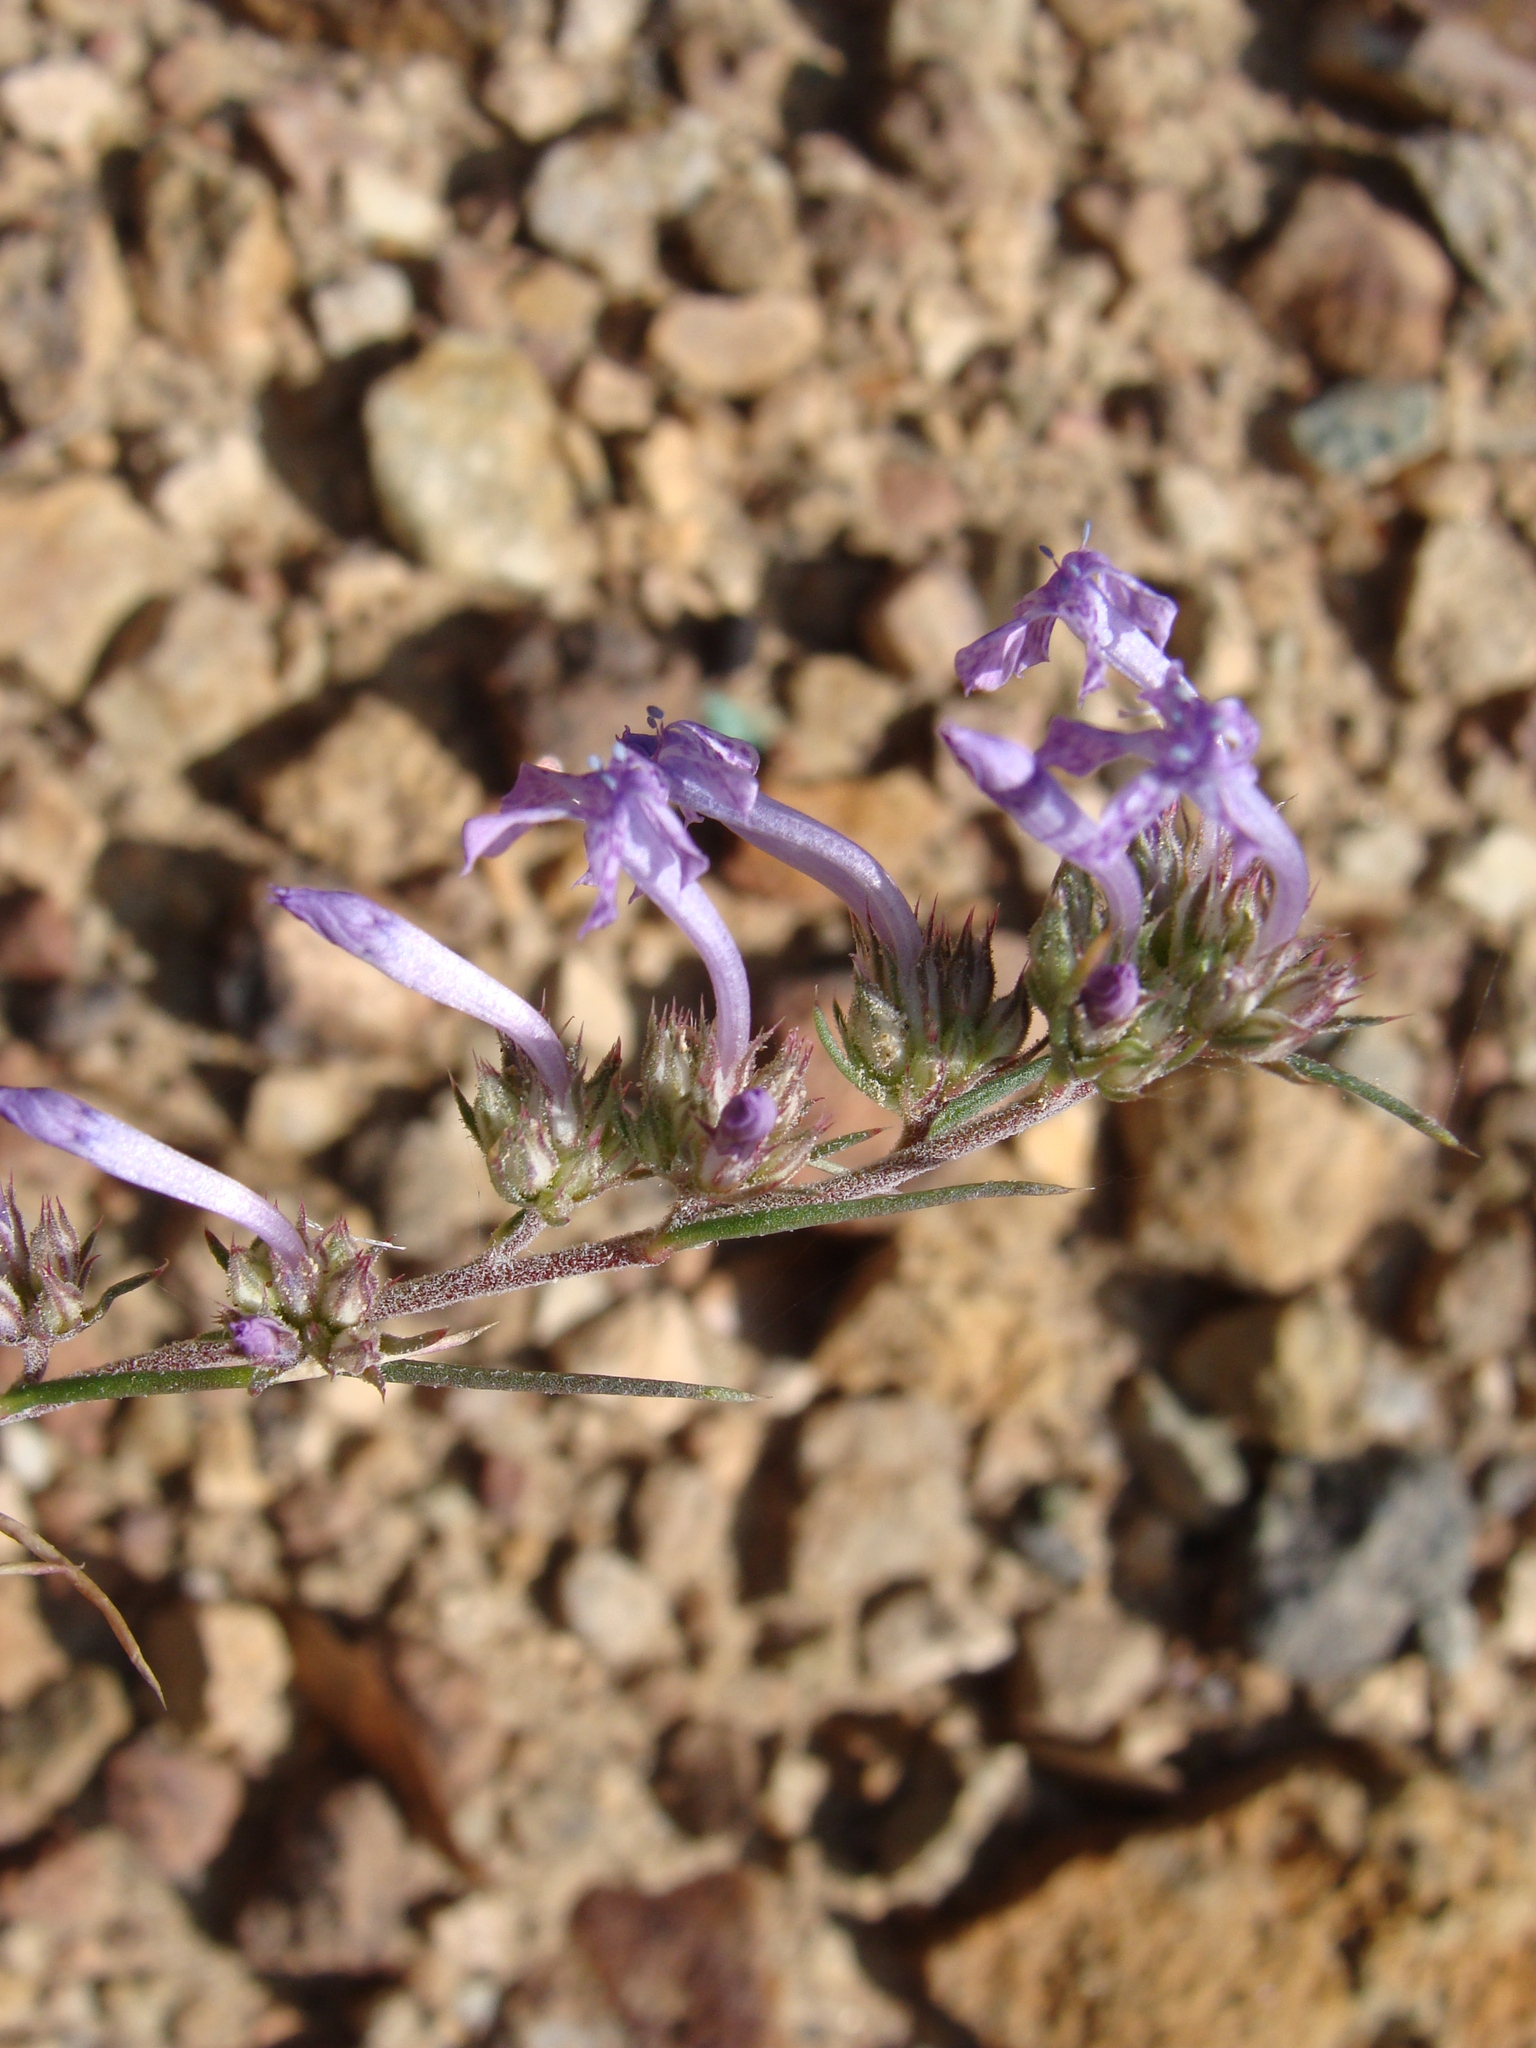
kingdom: Plantae
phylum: Tracheophyta
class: Magnoliopsida
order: Ericales
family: Polemoniaceae
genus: Ipomopsis
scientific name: Ipomopsis thurberi
